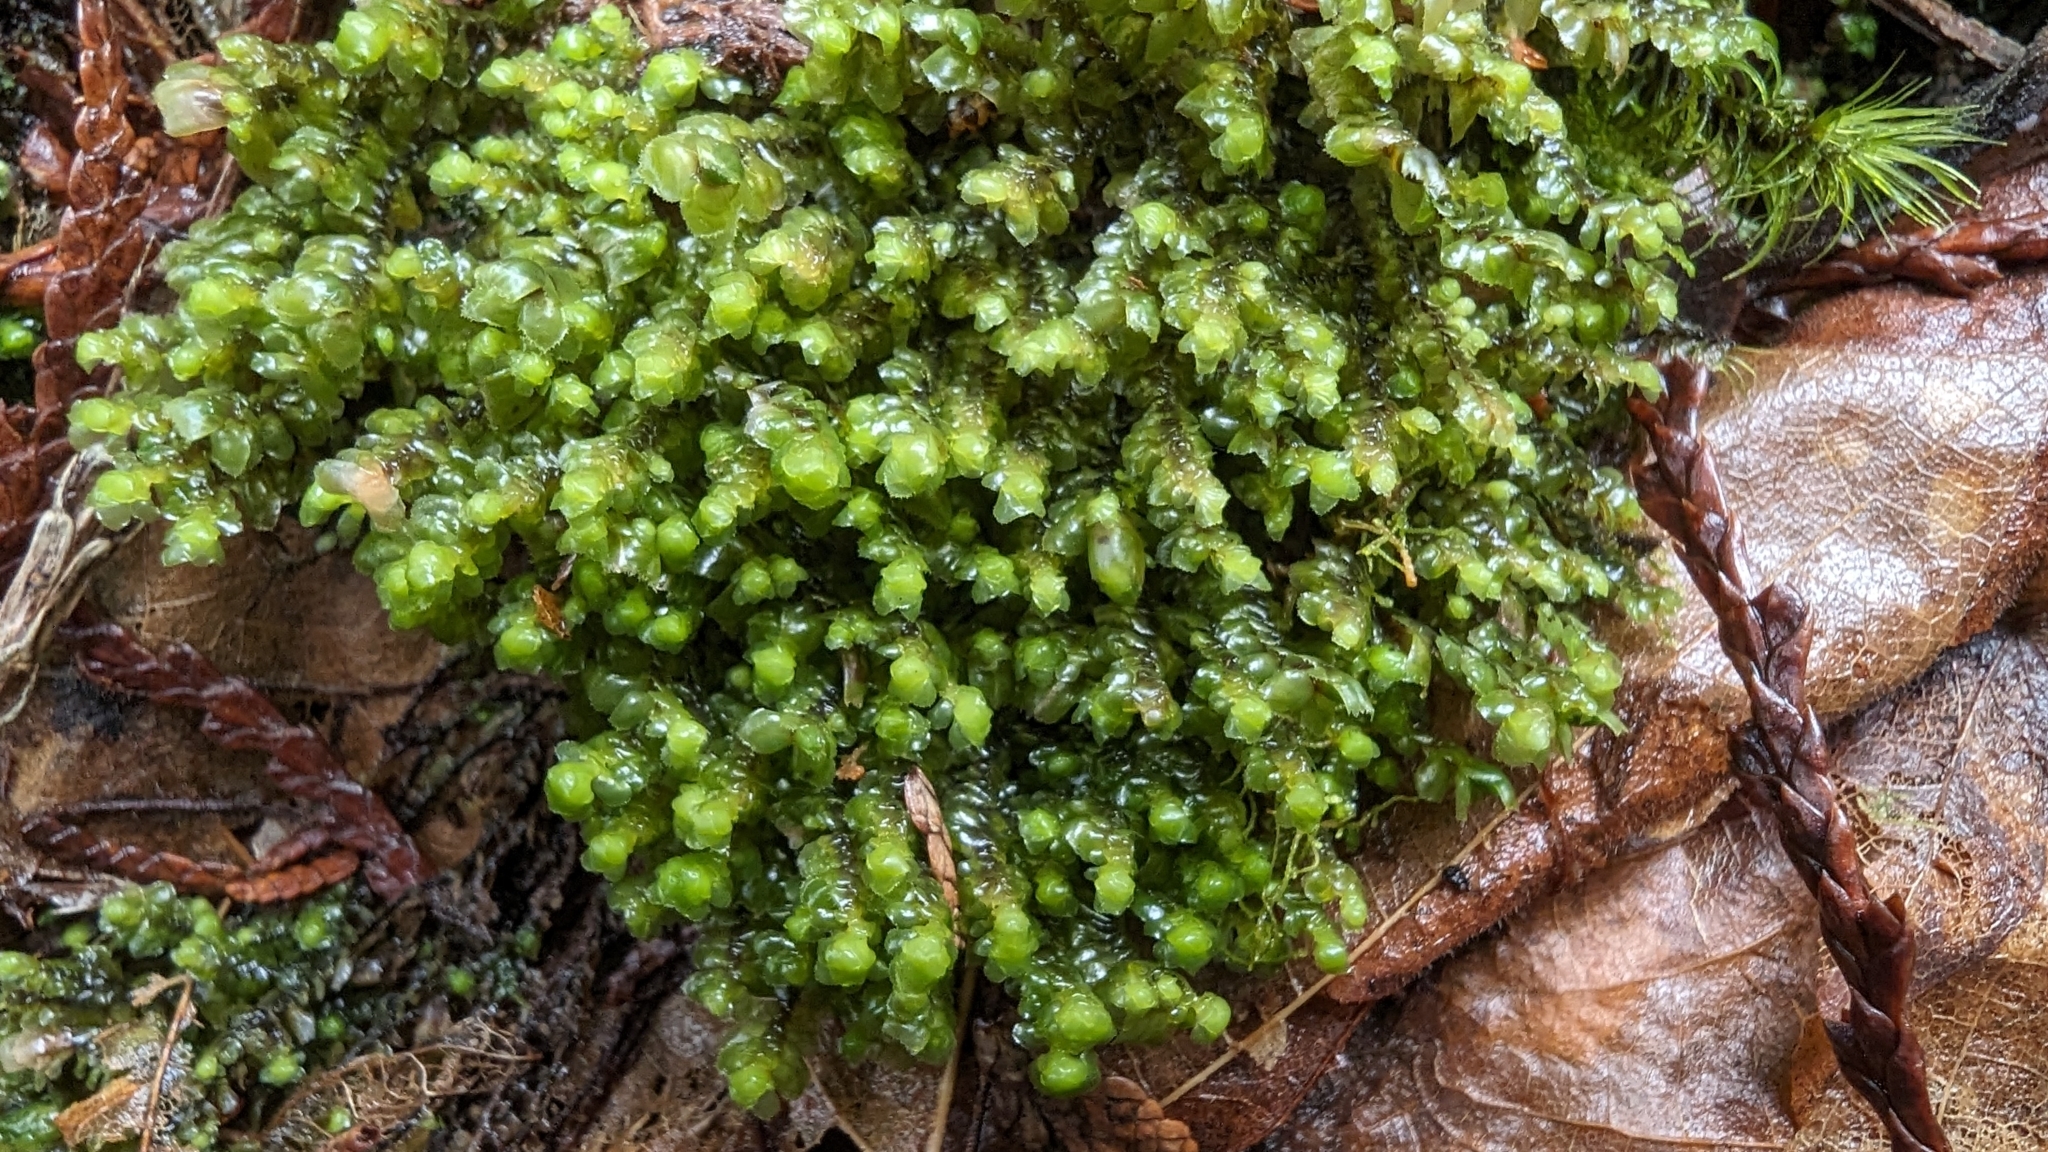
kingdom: Plantae
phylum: Marchantiophyta
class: Jungermanniopsida
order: Jungermanniales
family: Scapaniaceae
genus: Scapania
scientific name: Scapania bolanderi
